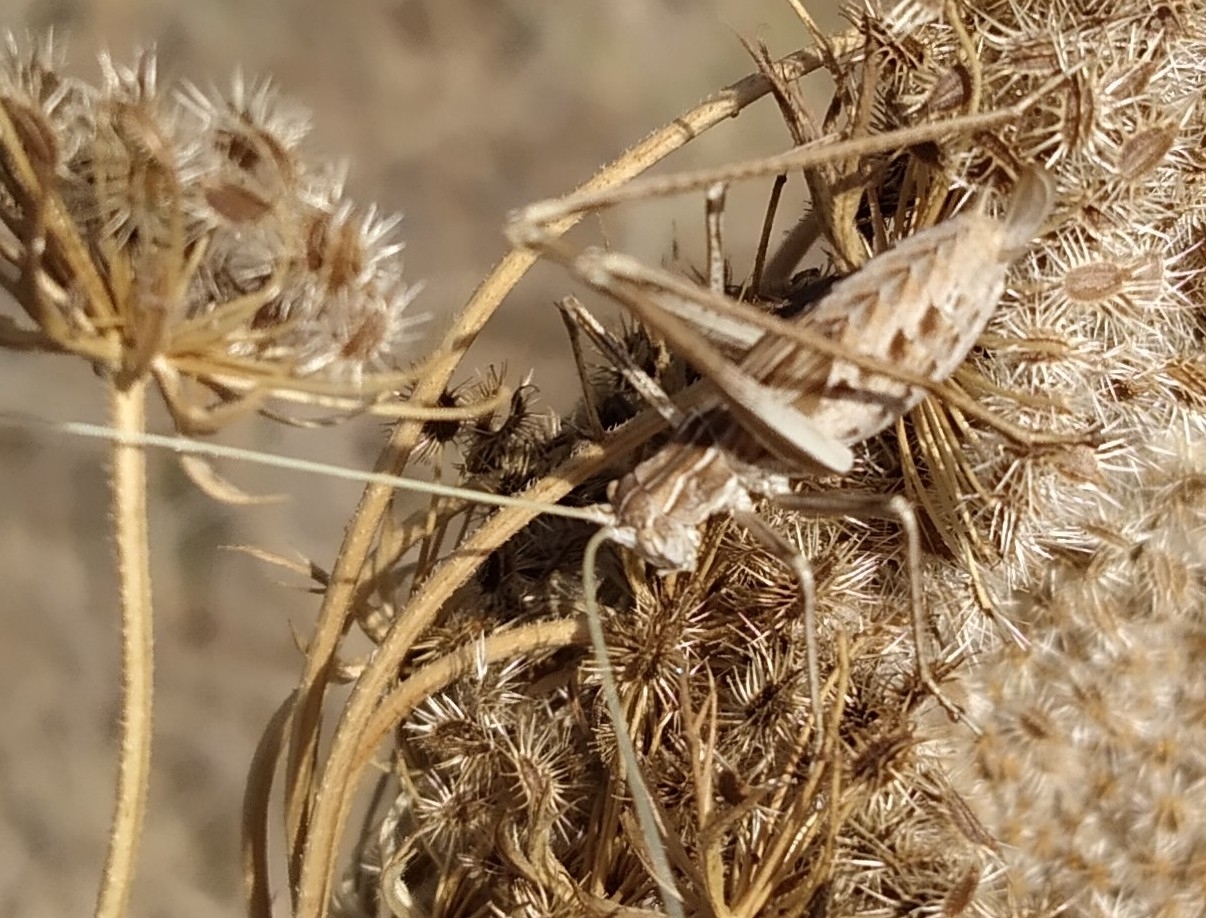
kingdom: Animalia
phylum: Arthropoda
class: Insecta
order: Orthoptera
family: Tettigoniidae
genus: Tylopsis
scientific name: Tylopsis lilifolia
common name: Lily bush-cricket
